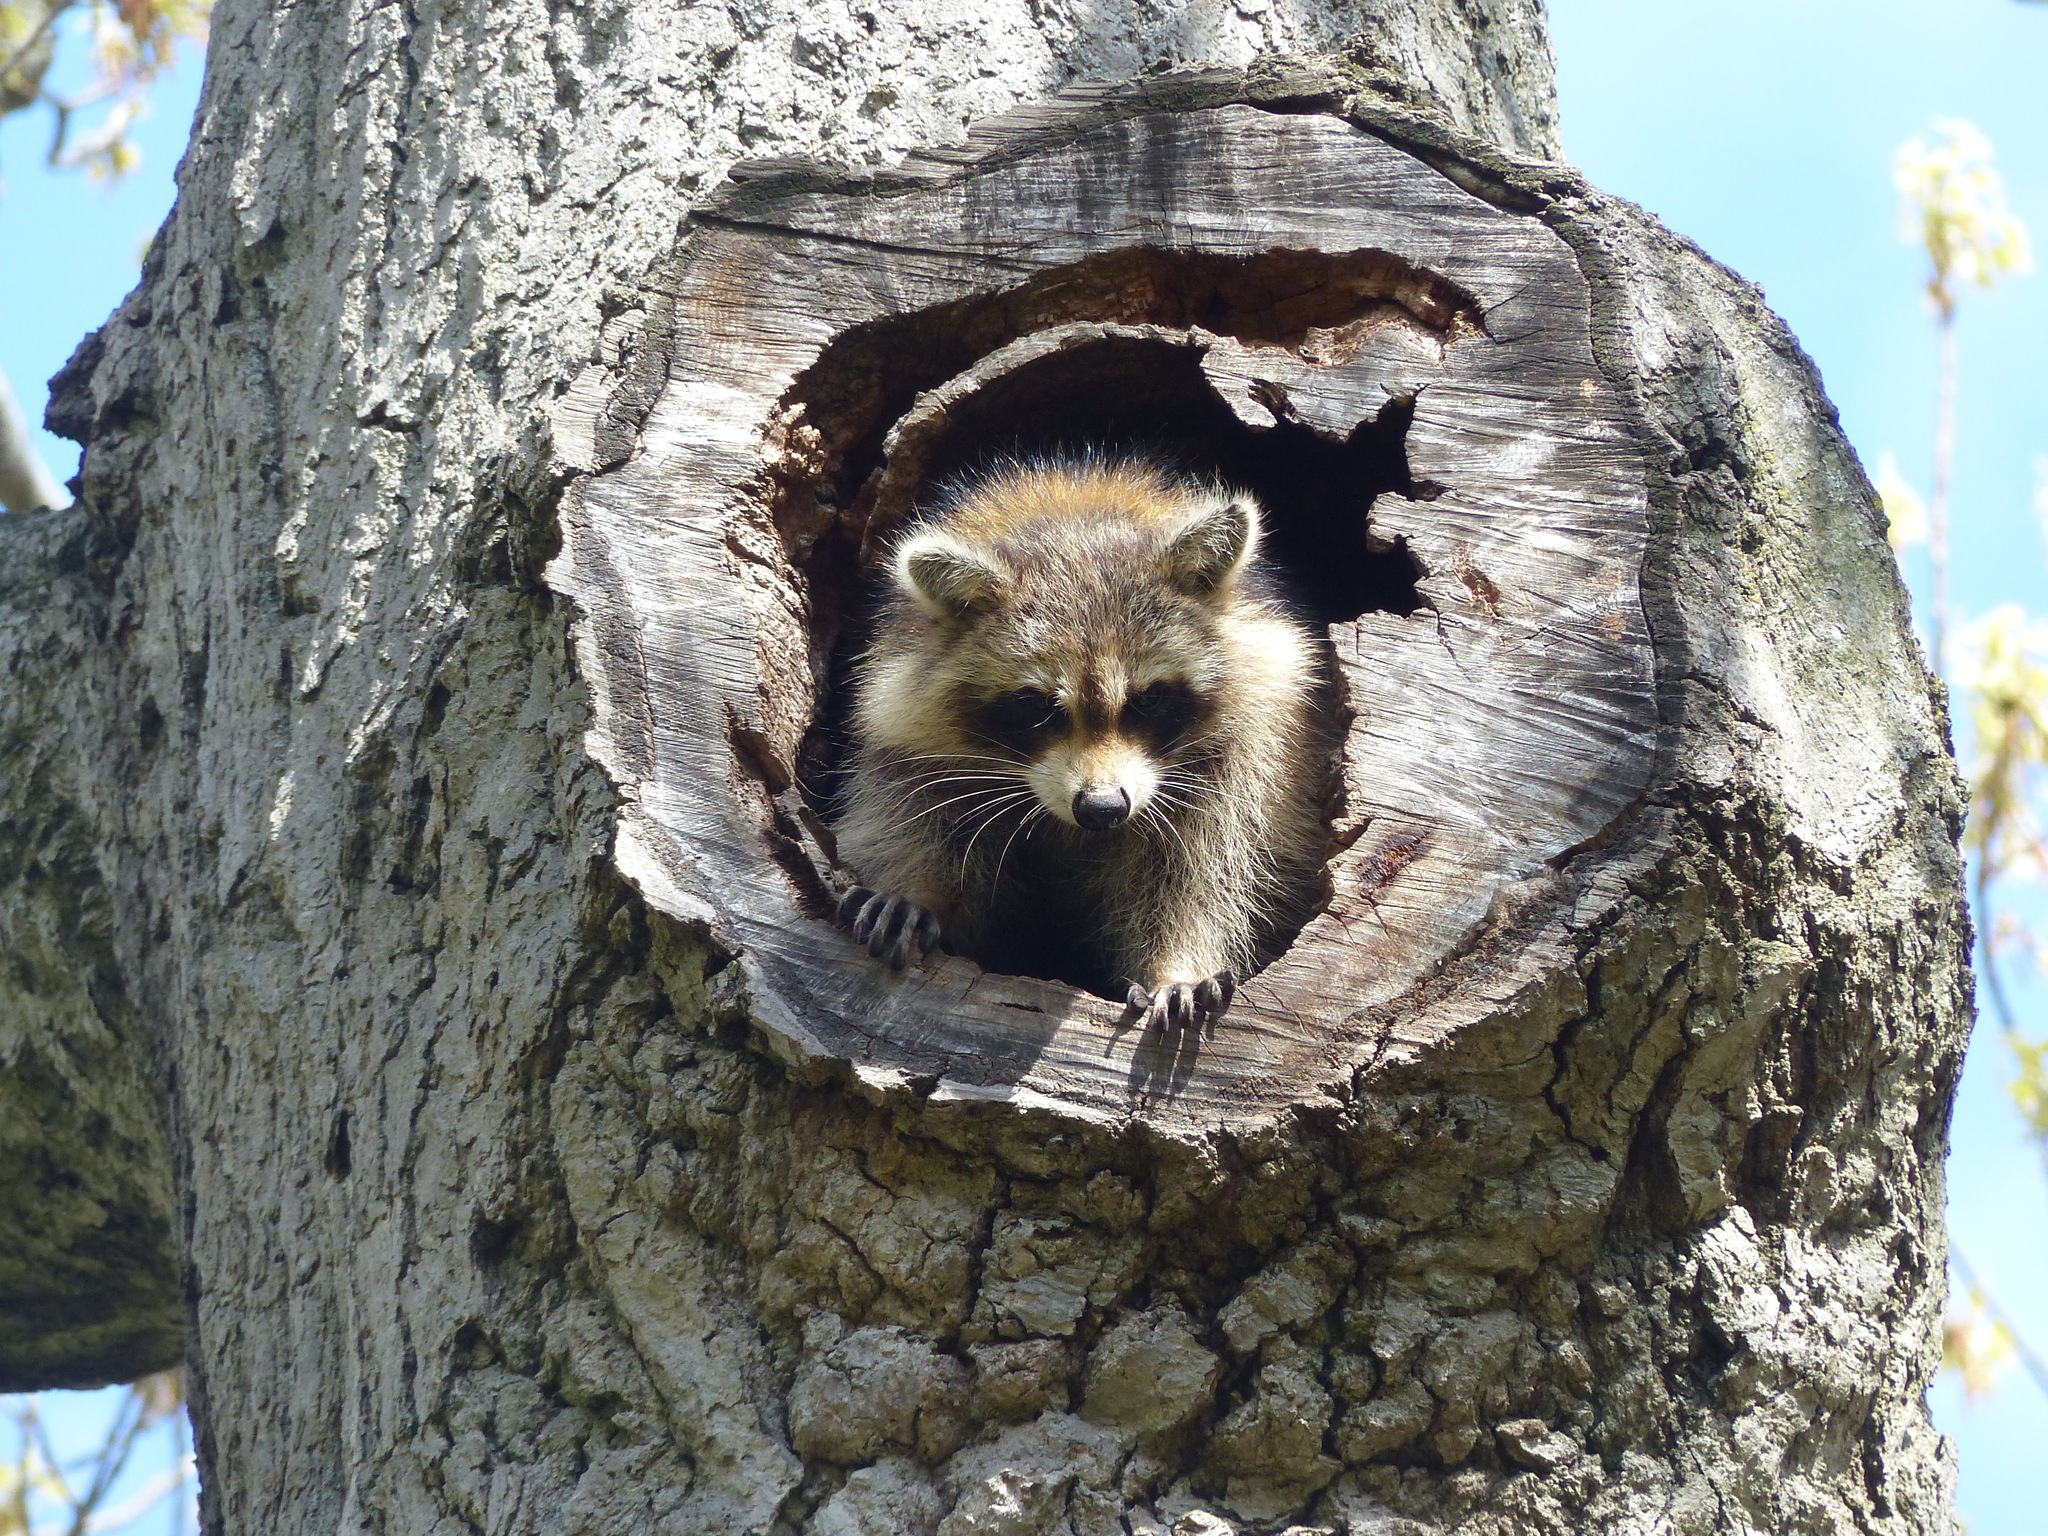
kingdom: Animalia
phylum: Chordata
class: Mammalia
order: Carnivora
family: Procyonidae
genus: Procyon
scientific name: Procyon lotor
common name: Raccoon
